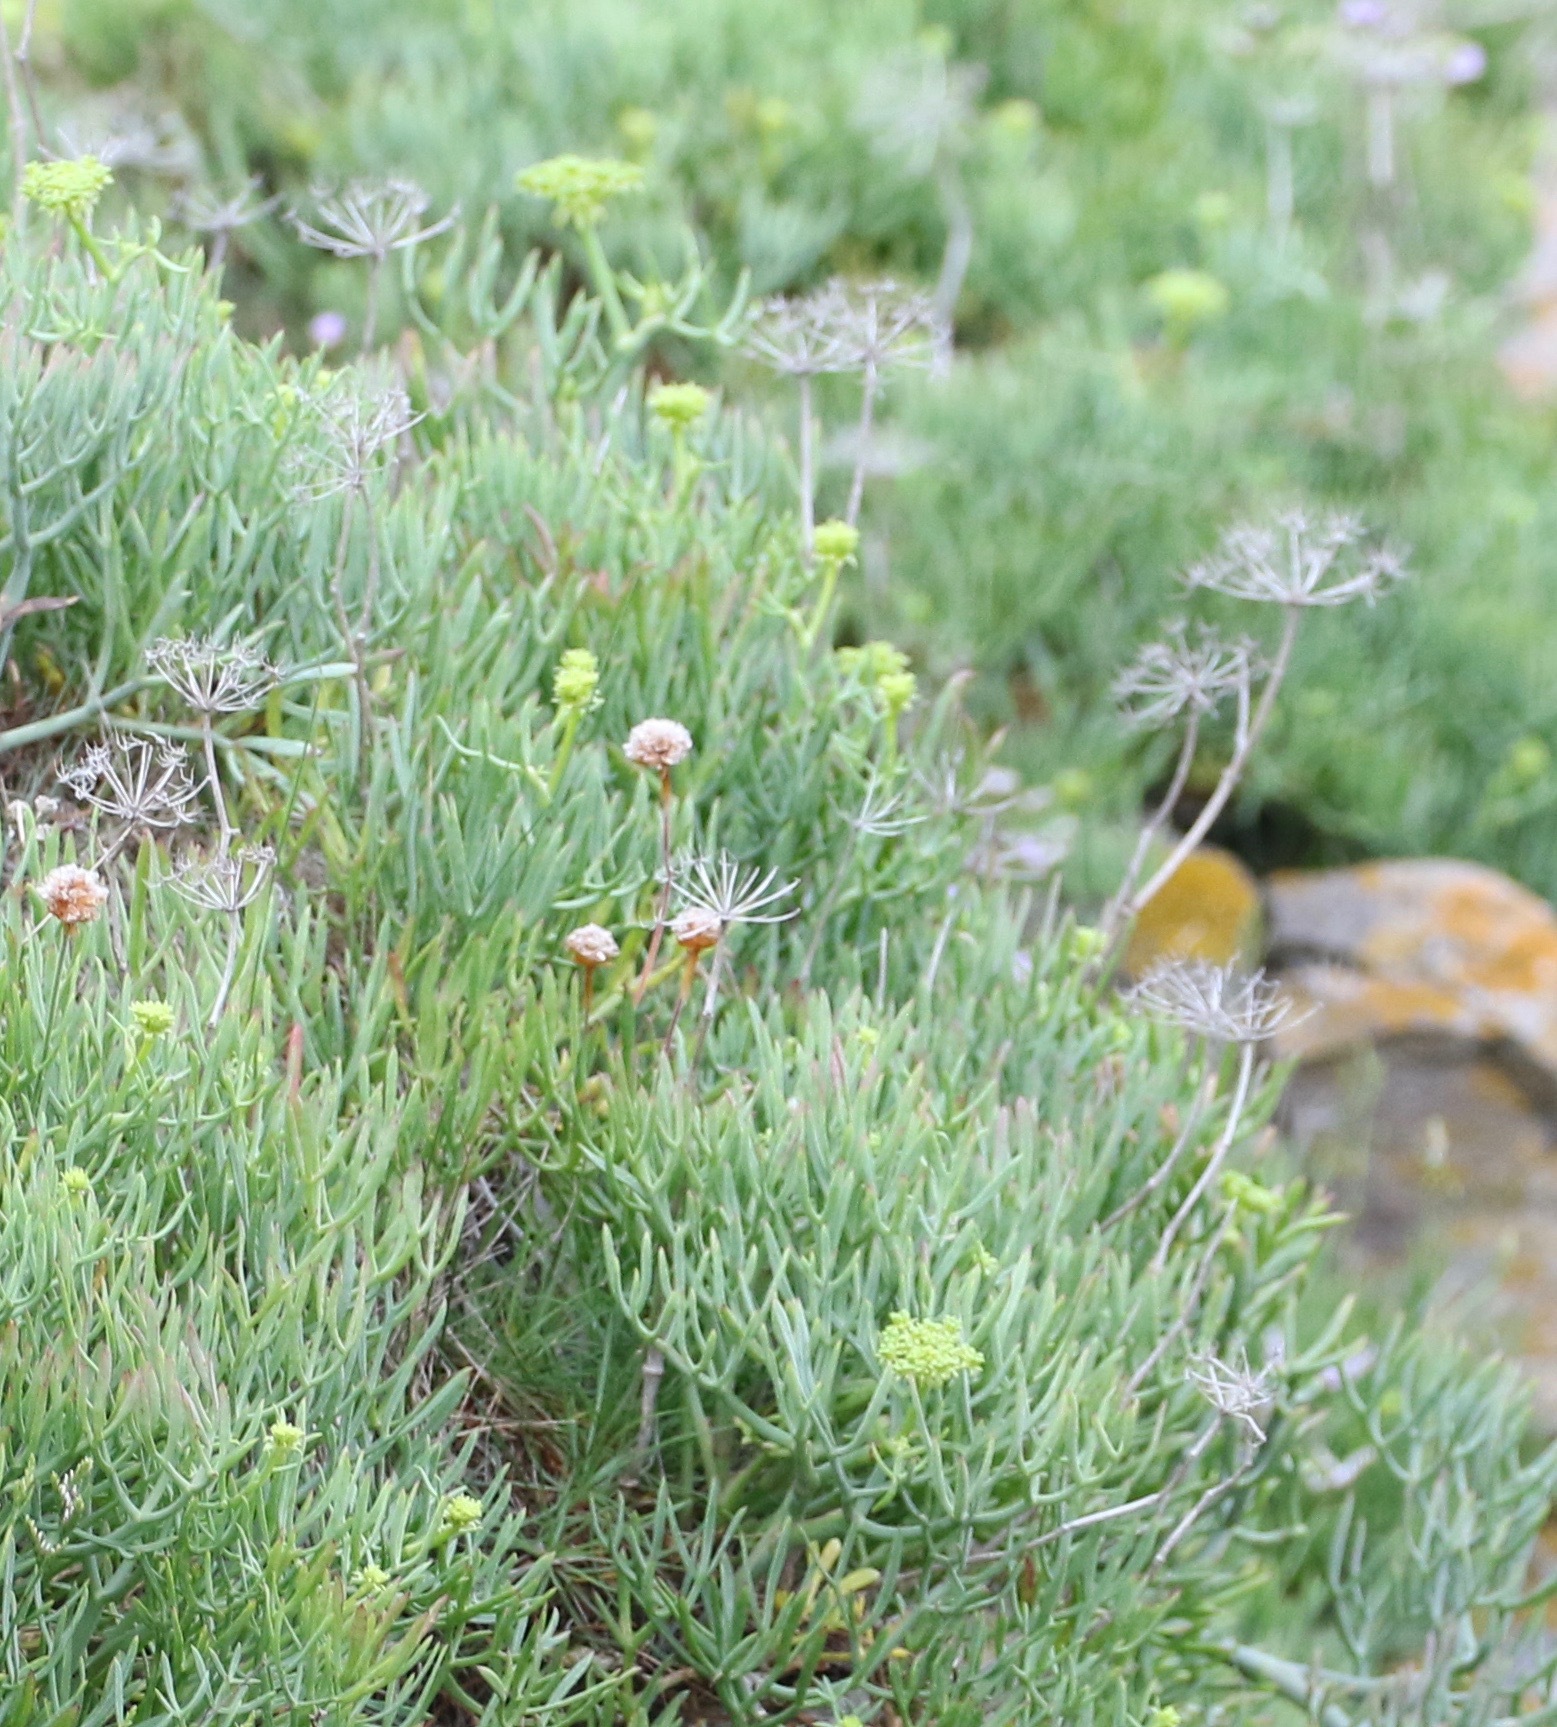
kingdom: Plantae
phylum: Tracheophyta
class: Magnoliopsida
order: Apiales
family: Apiaceae
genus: Crithmum
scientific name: Crithmum maritimum
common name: Rock samphire
